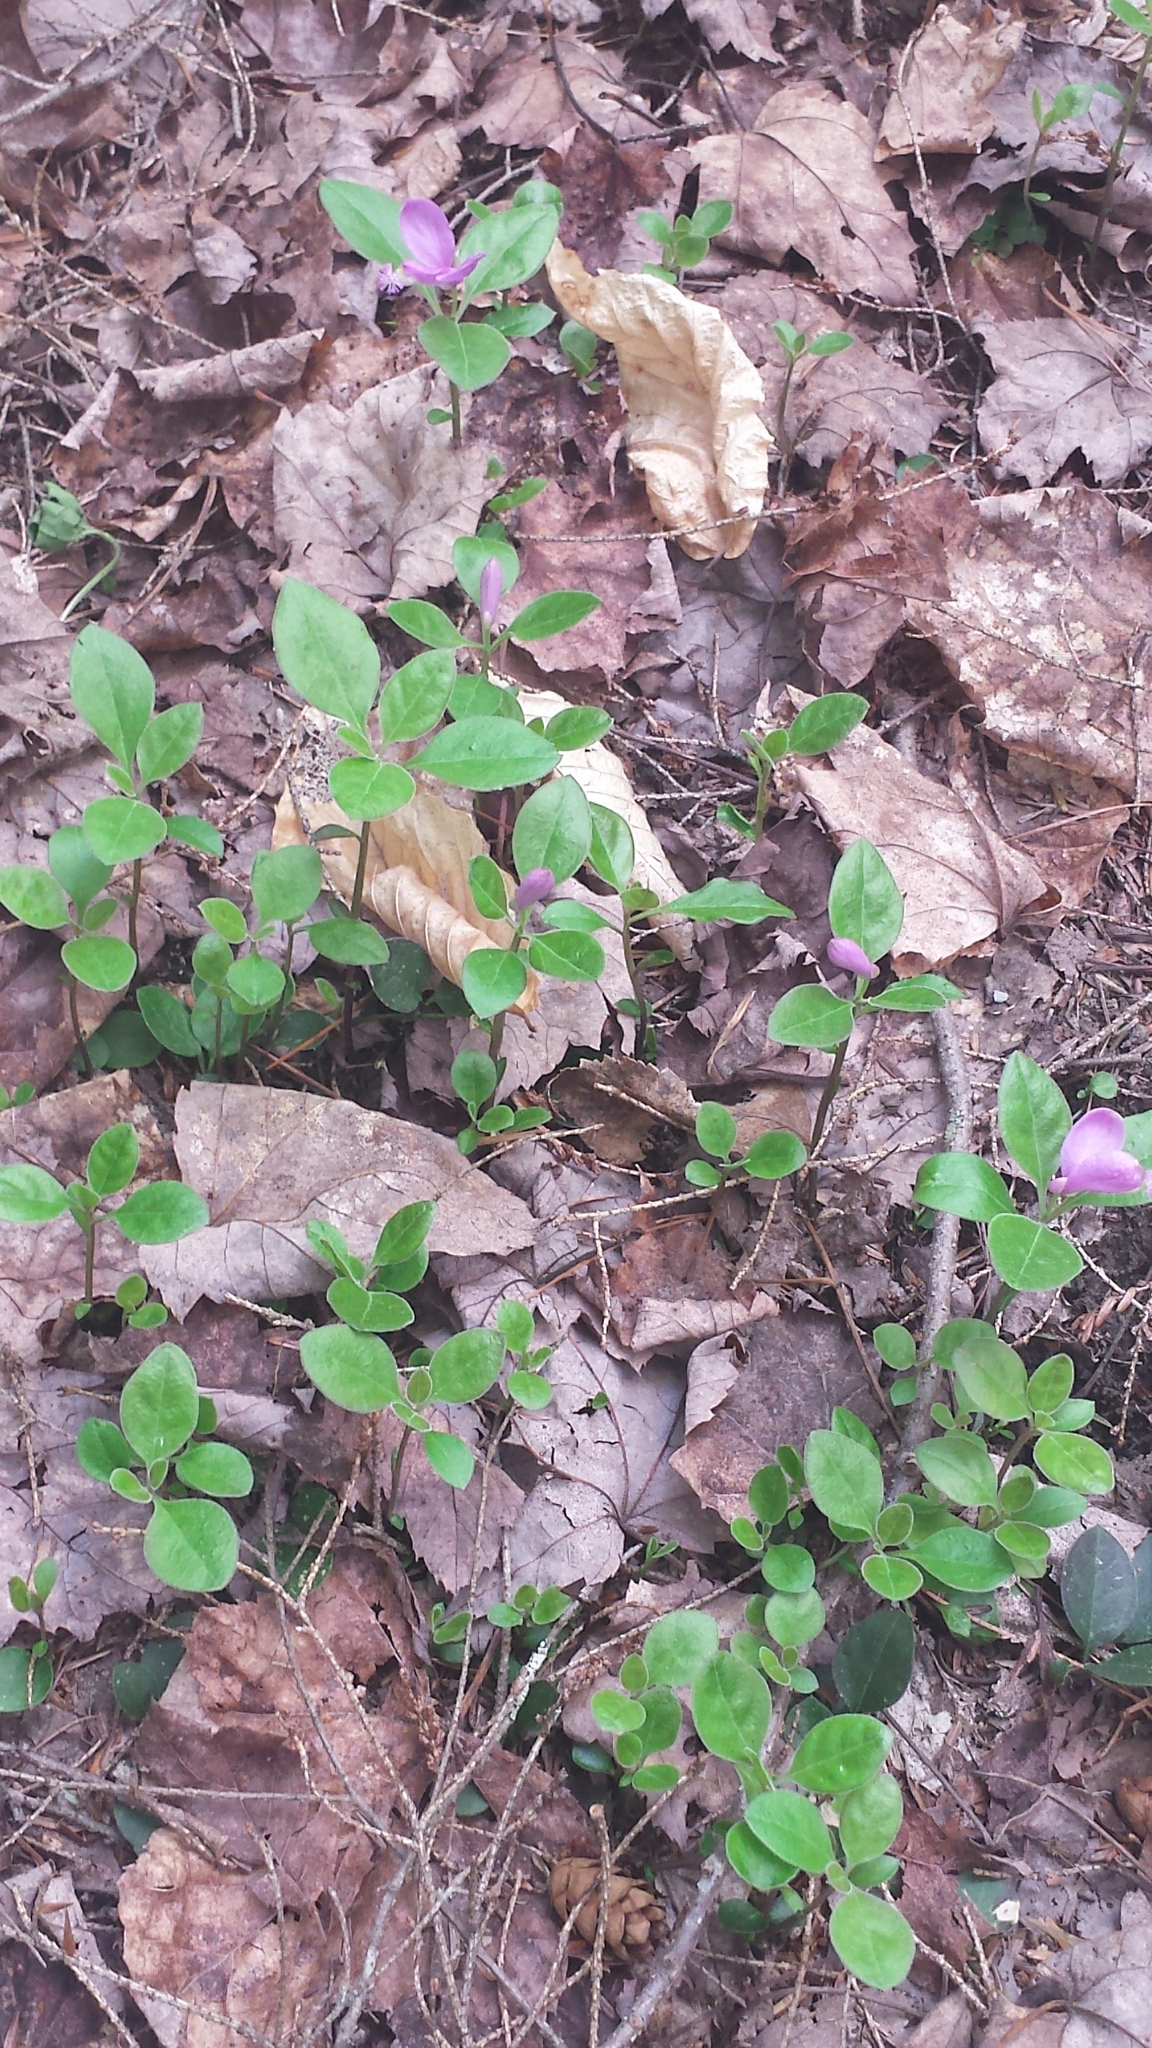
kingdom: Plantae
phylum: Tracheophyta
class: Magnoliopsida
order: Fabales
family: Polygalaceae
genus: Polygaloides
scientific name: Polygaloides paucifolia
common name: Bird-on-the-wing
